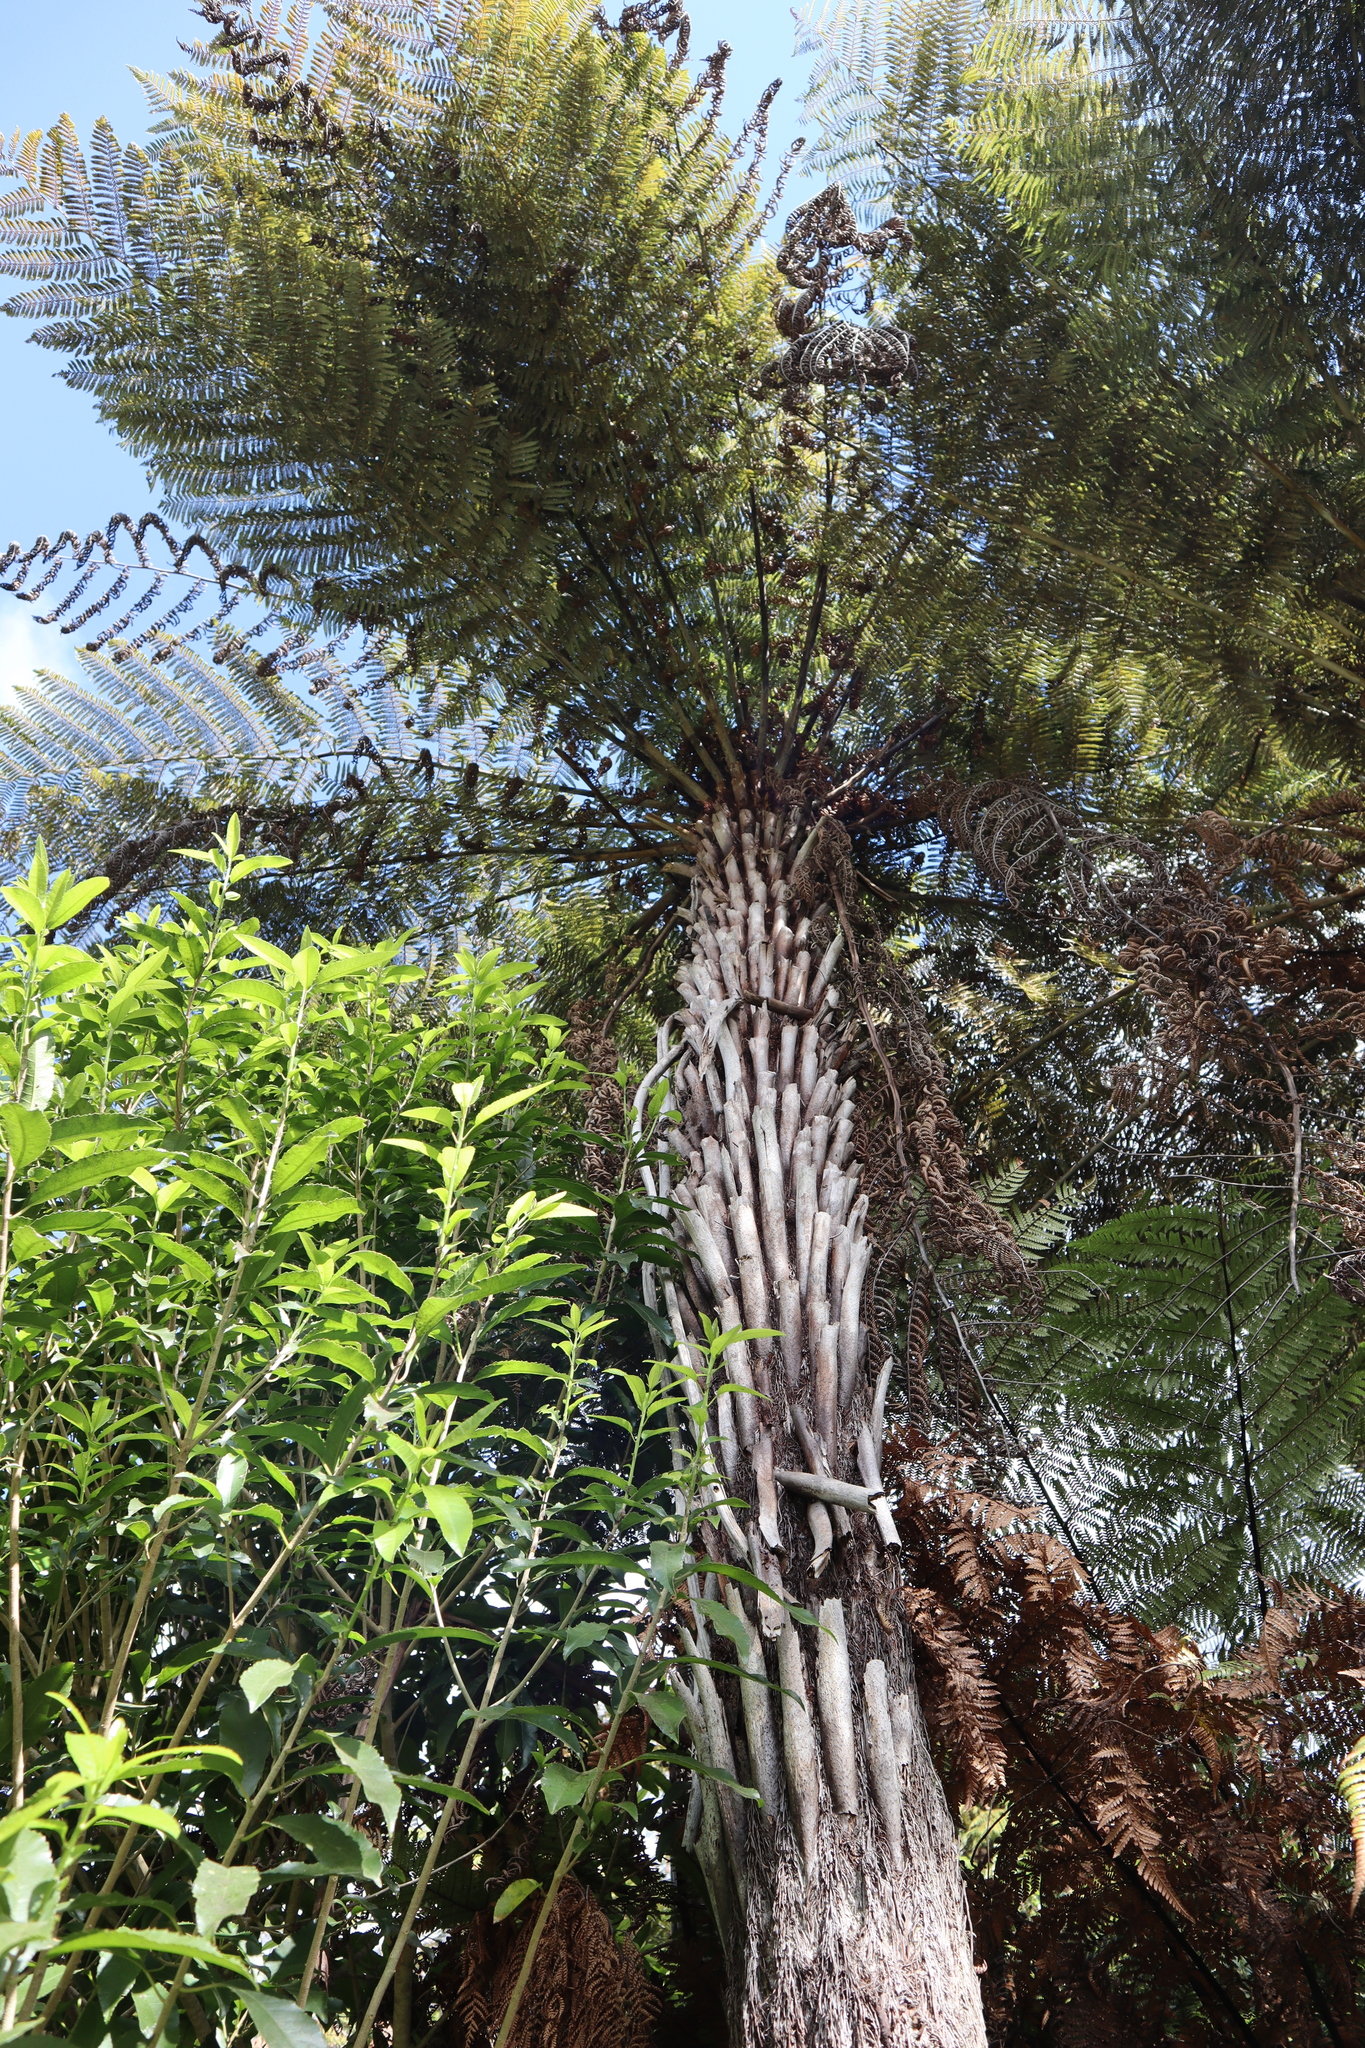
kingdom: Plantae
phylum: Tracheophyta
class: Polypodiopsida
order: Cyatheales
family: Cyatheaceae
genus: Alsophila
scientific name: Alsophila dealbata
